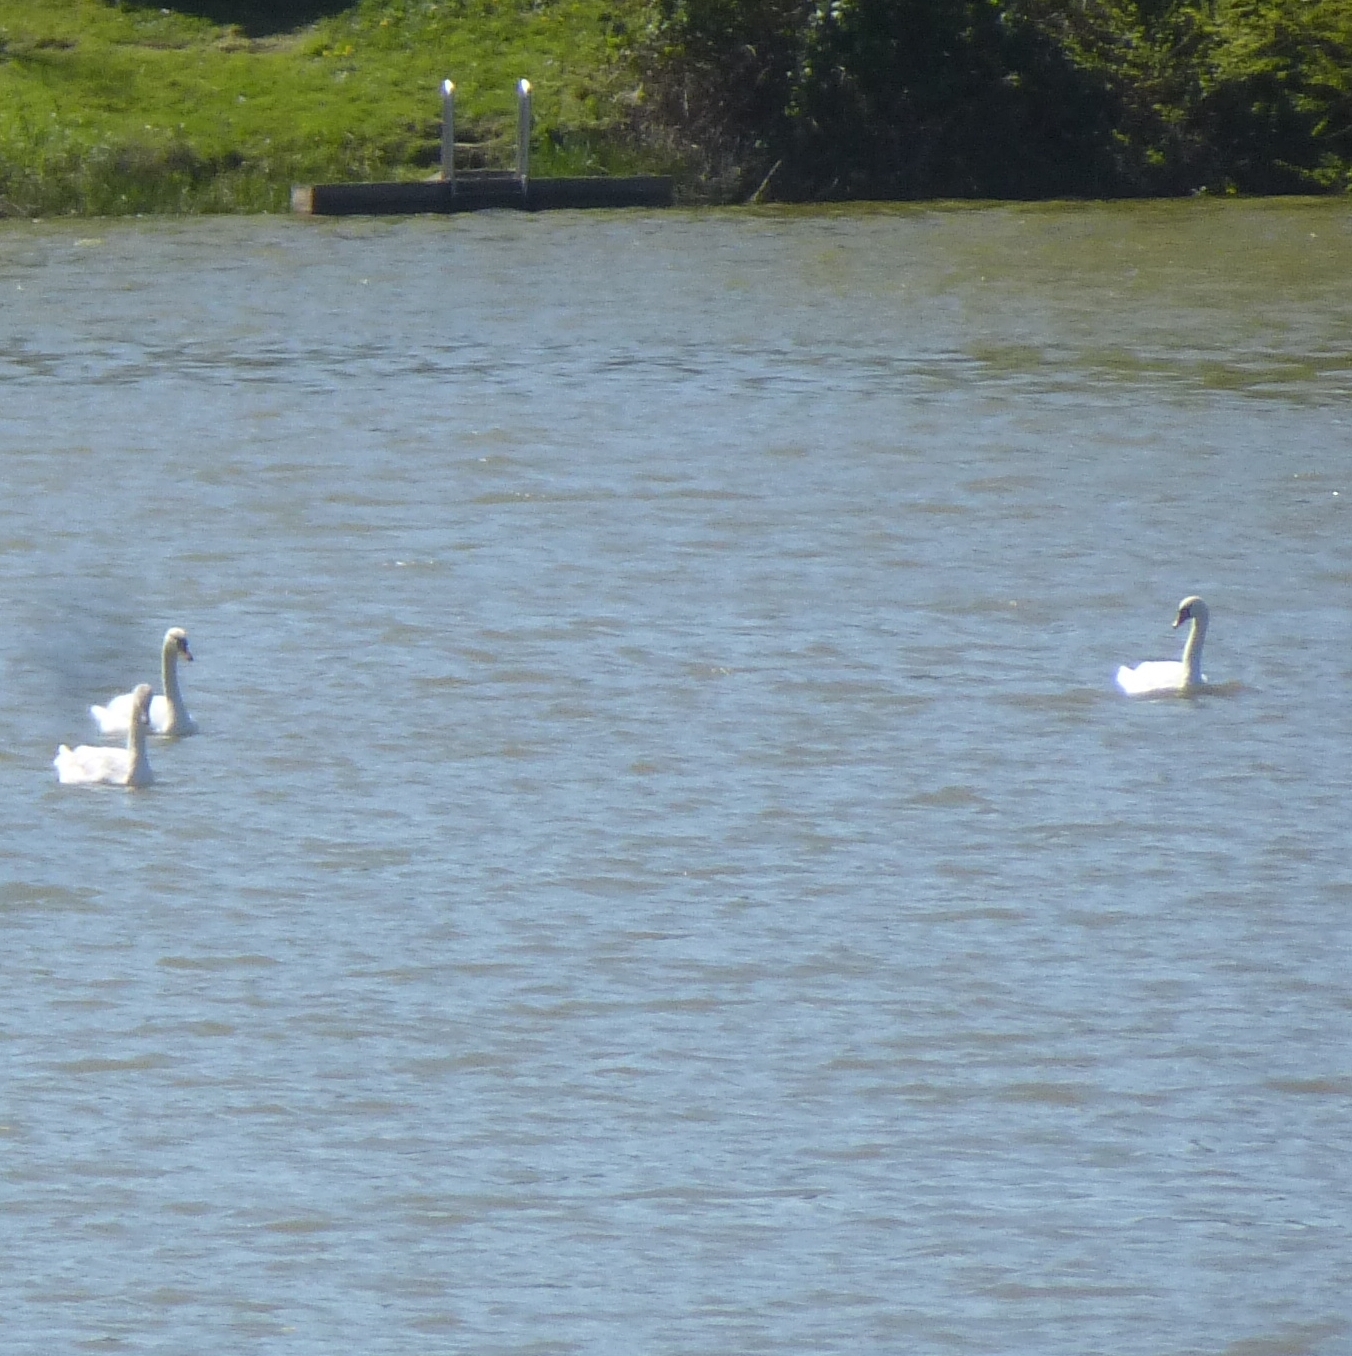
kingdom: Animalia
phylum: Chordata
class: Aves
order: Anseriformes
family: Anatidae
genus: Cygnus
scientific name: Cygnus olor
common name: Mute swan
